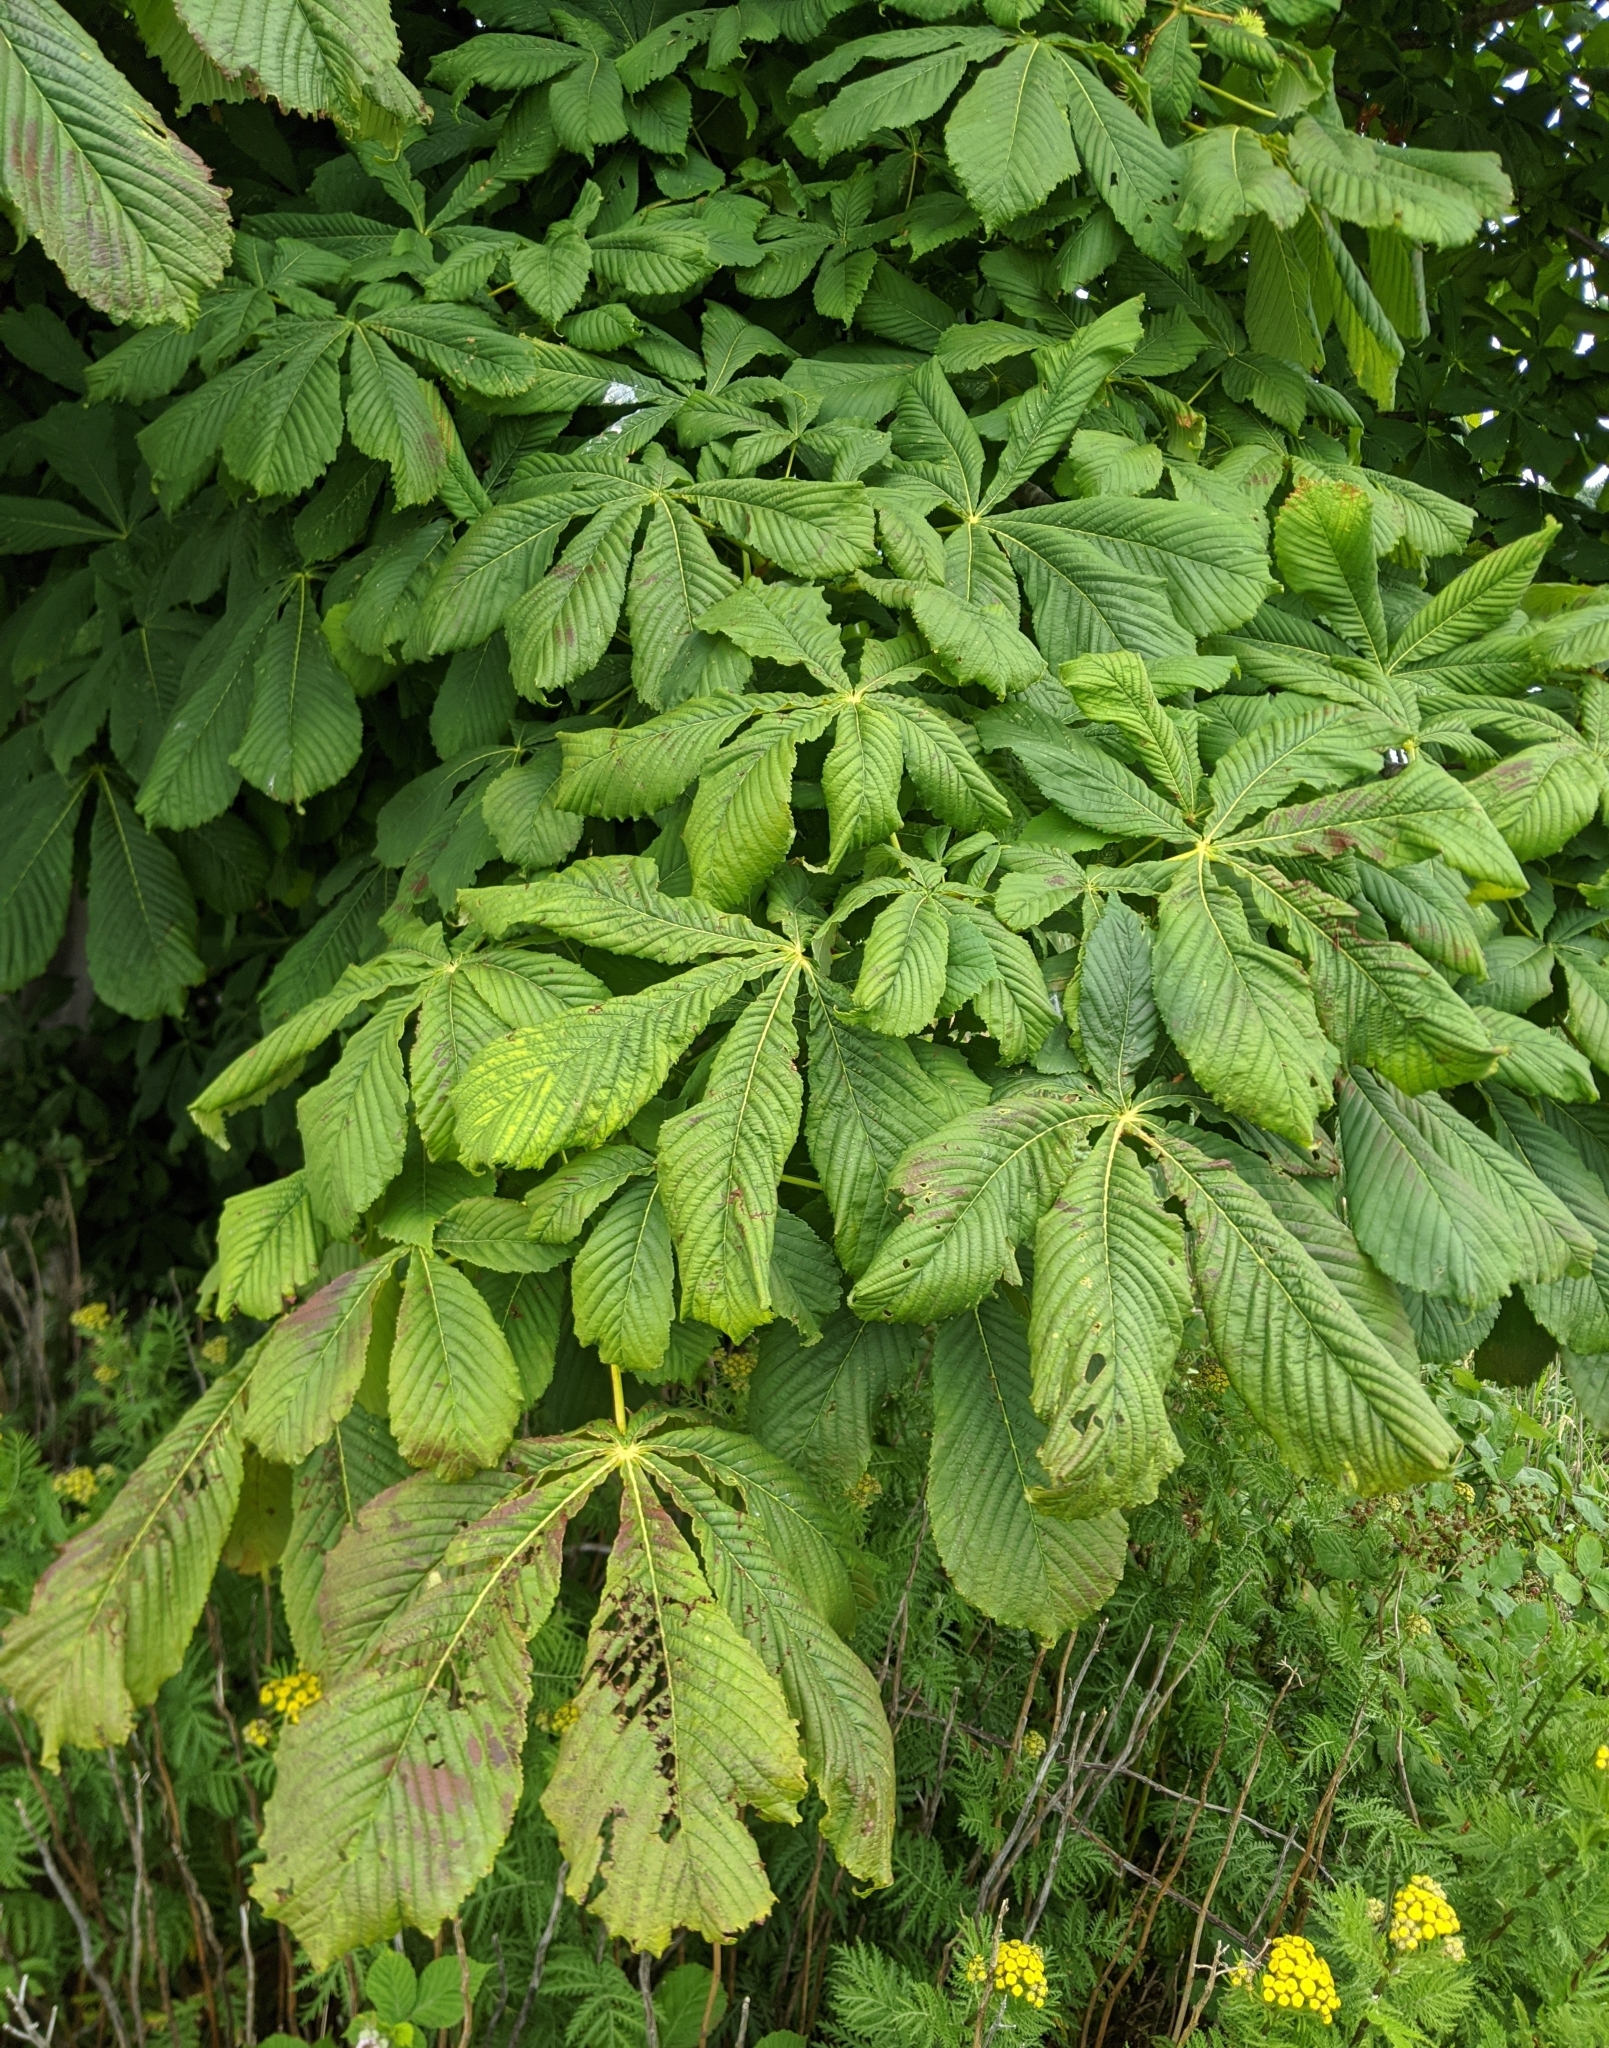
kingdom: Plantae
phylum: Tracheophyta
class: Magnoliopsida
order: Sapindales
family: Sapindaceae
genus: Aesculus
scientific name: Aesculus hippocastanum
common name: Horse-chestnut
